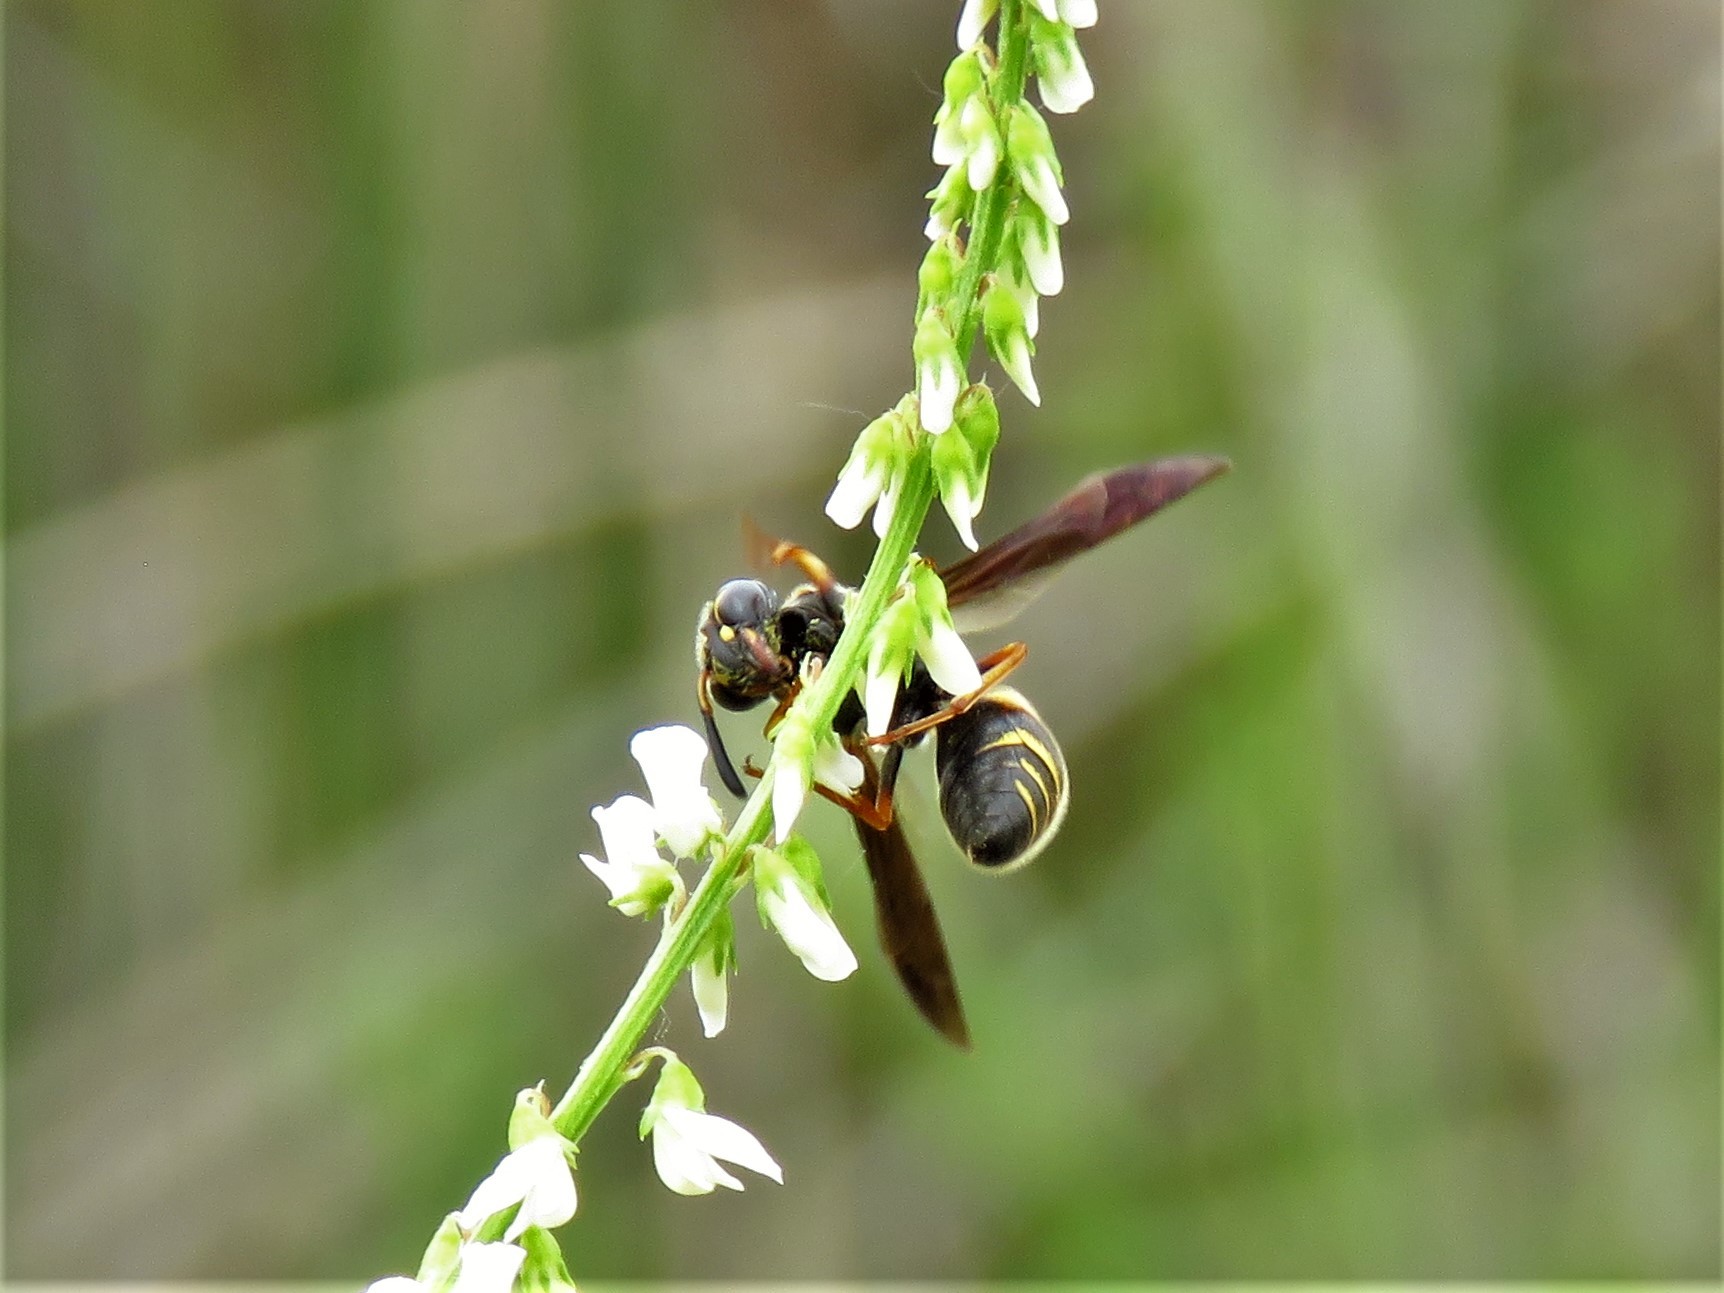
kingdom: Animalia
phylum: Arthropoda
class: Insecta
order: Hymenoptera
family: Eumenidae
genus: Euodynerus
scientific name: Euodynerus boscii
